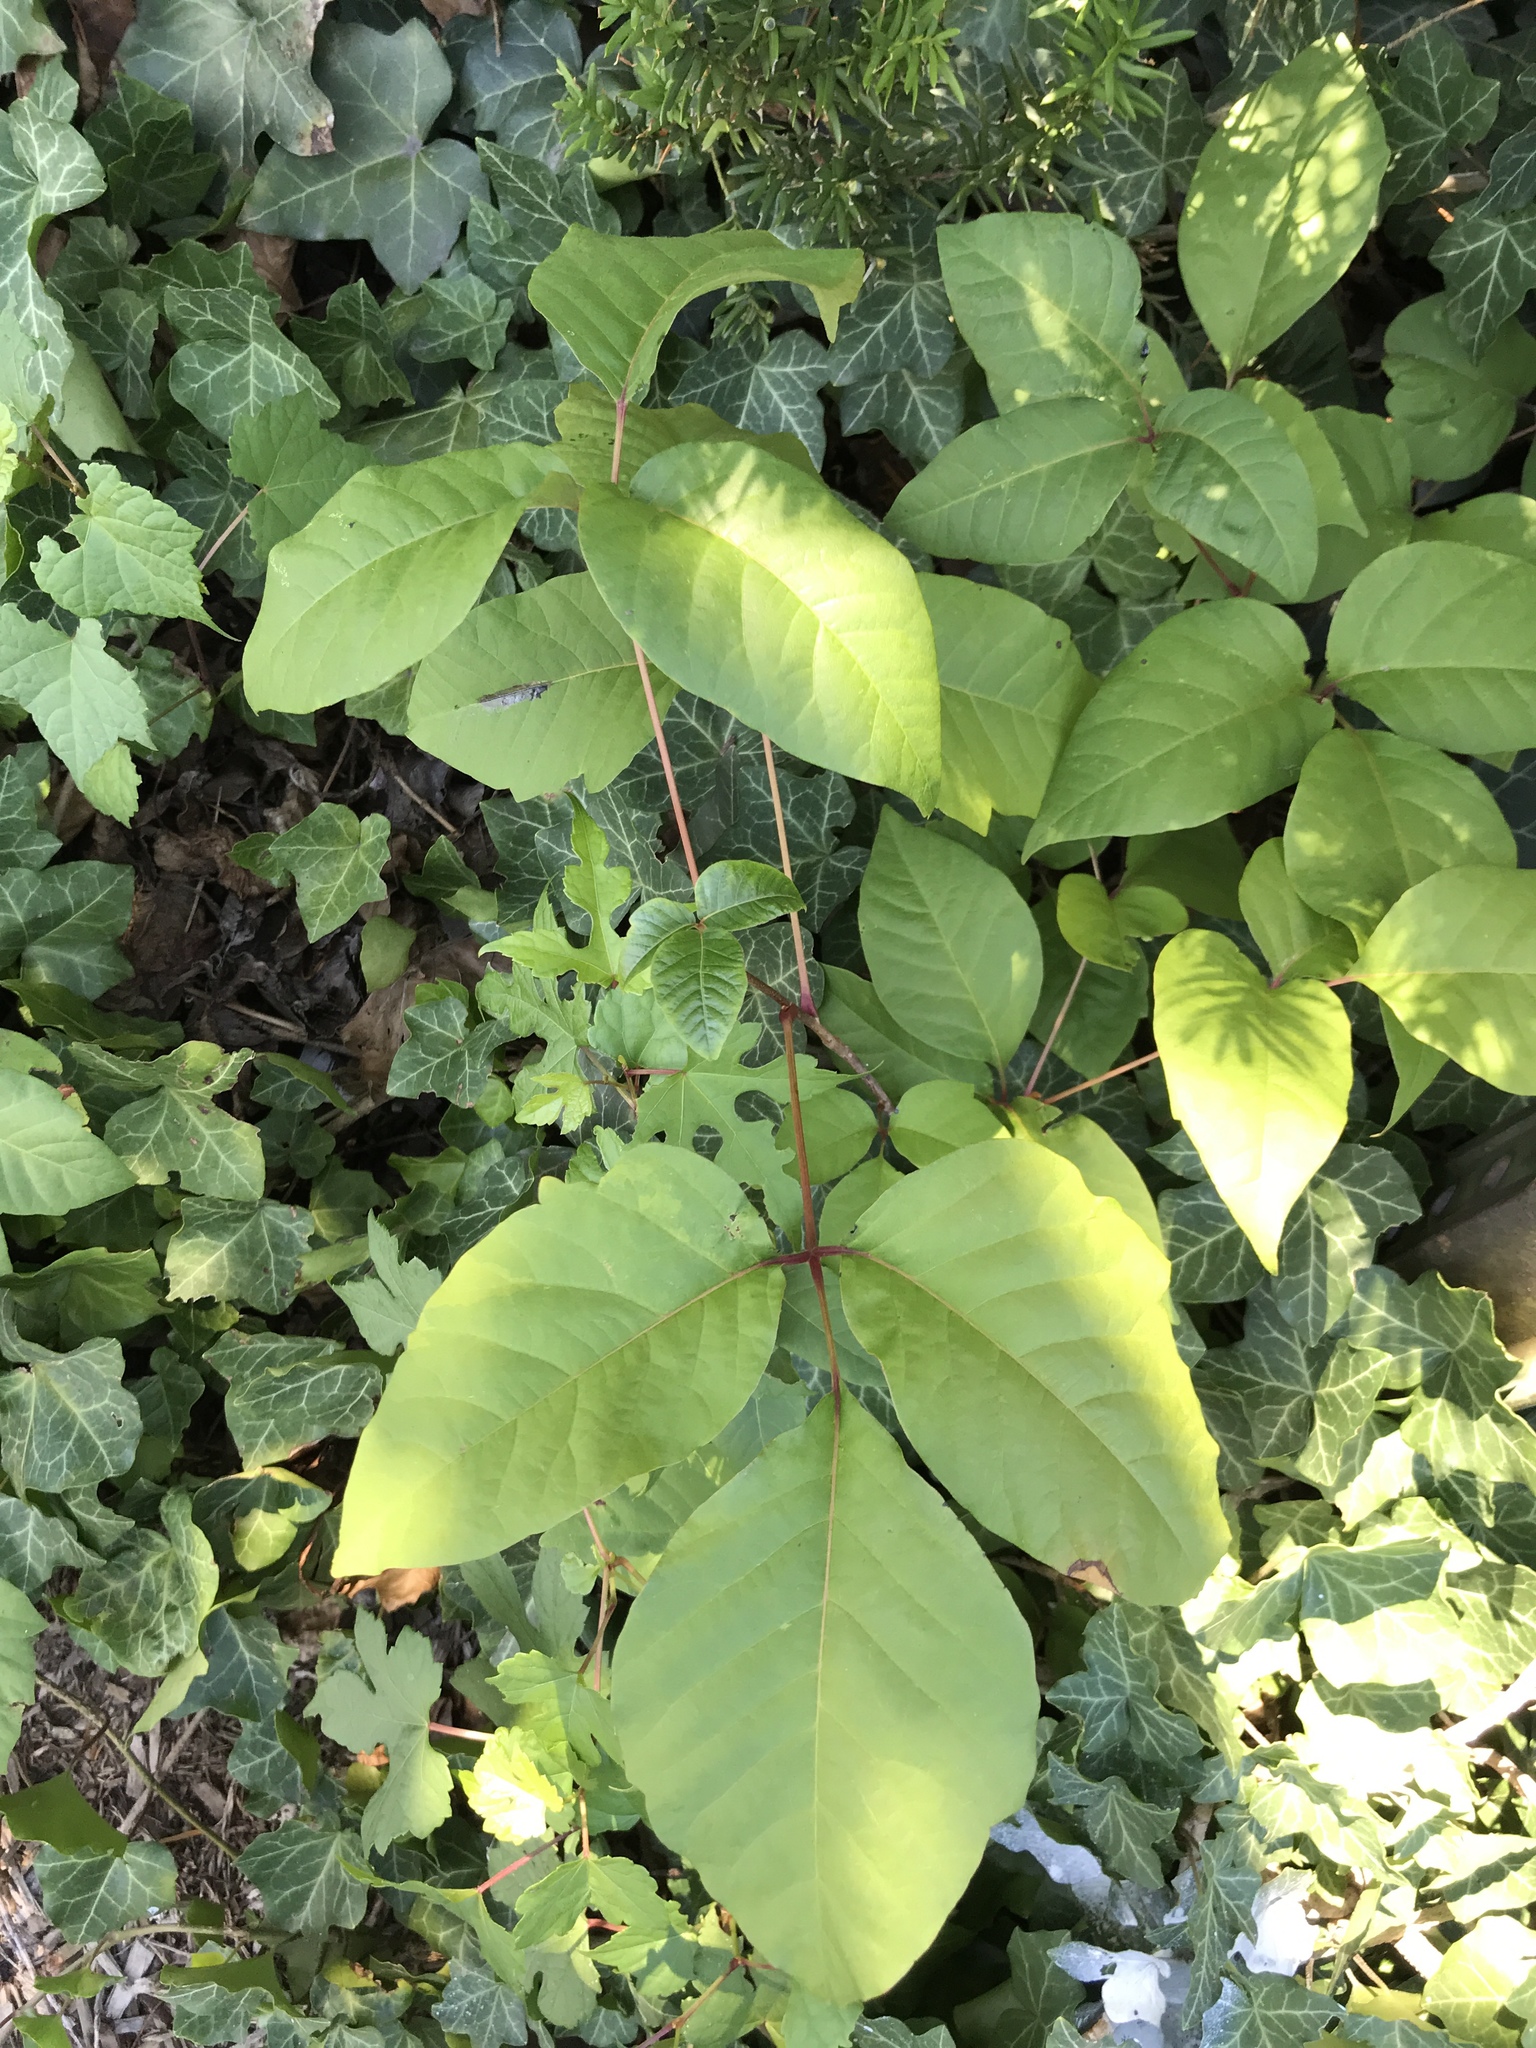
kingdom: Plantae
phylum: Tracheophyta
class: Magnoliopsida
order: Sapindales
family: Anacardiaceae
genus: Toxicodendron
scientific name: Toxicodendron radicans
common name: Poison ivy
